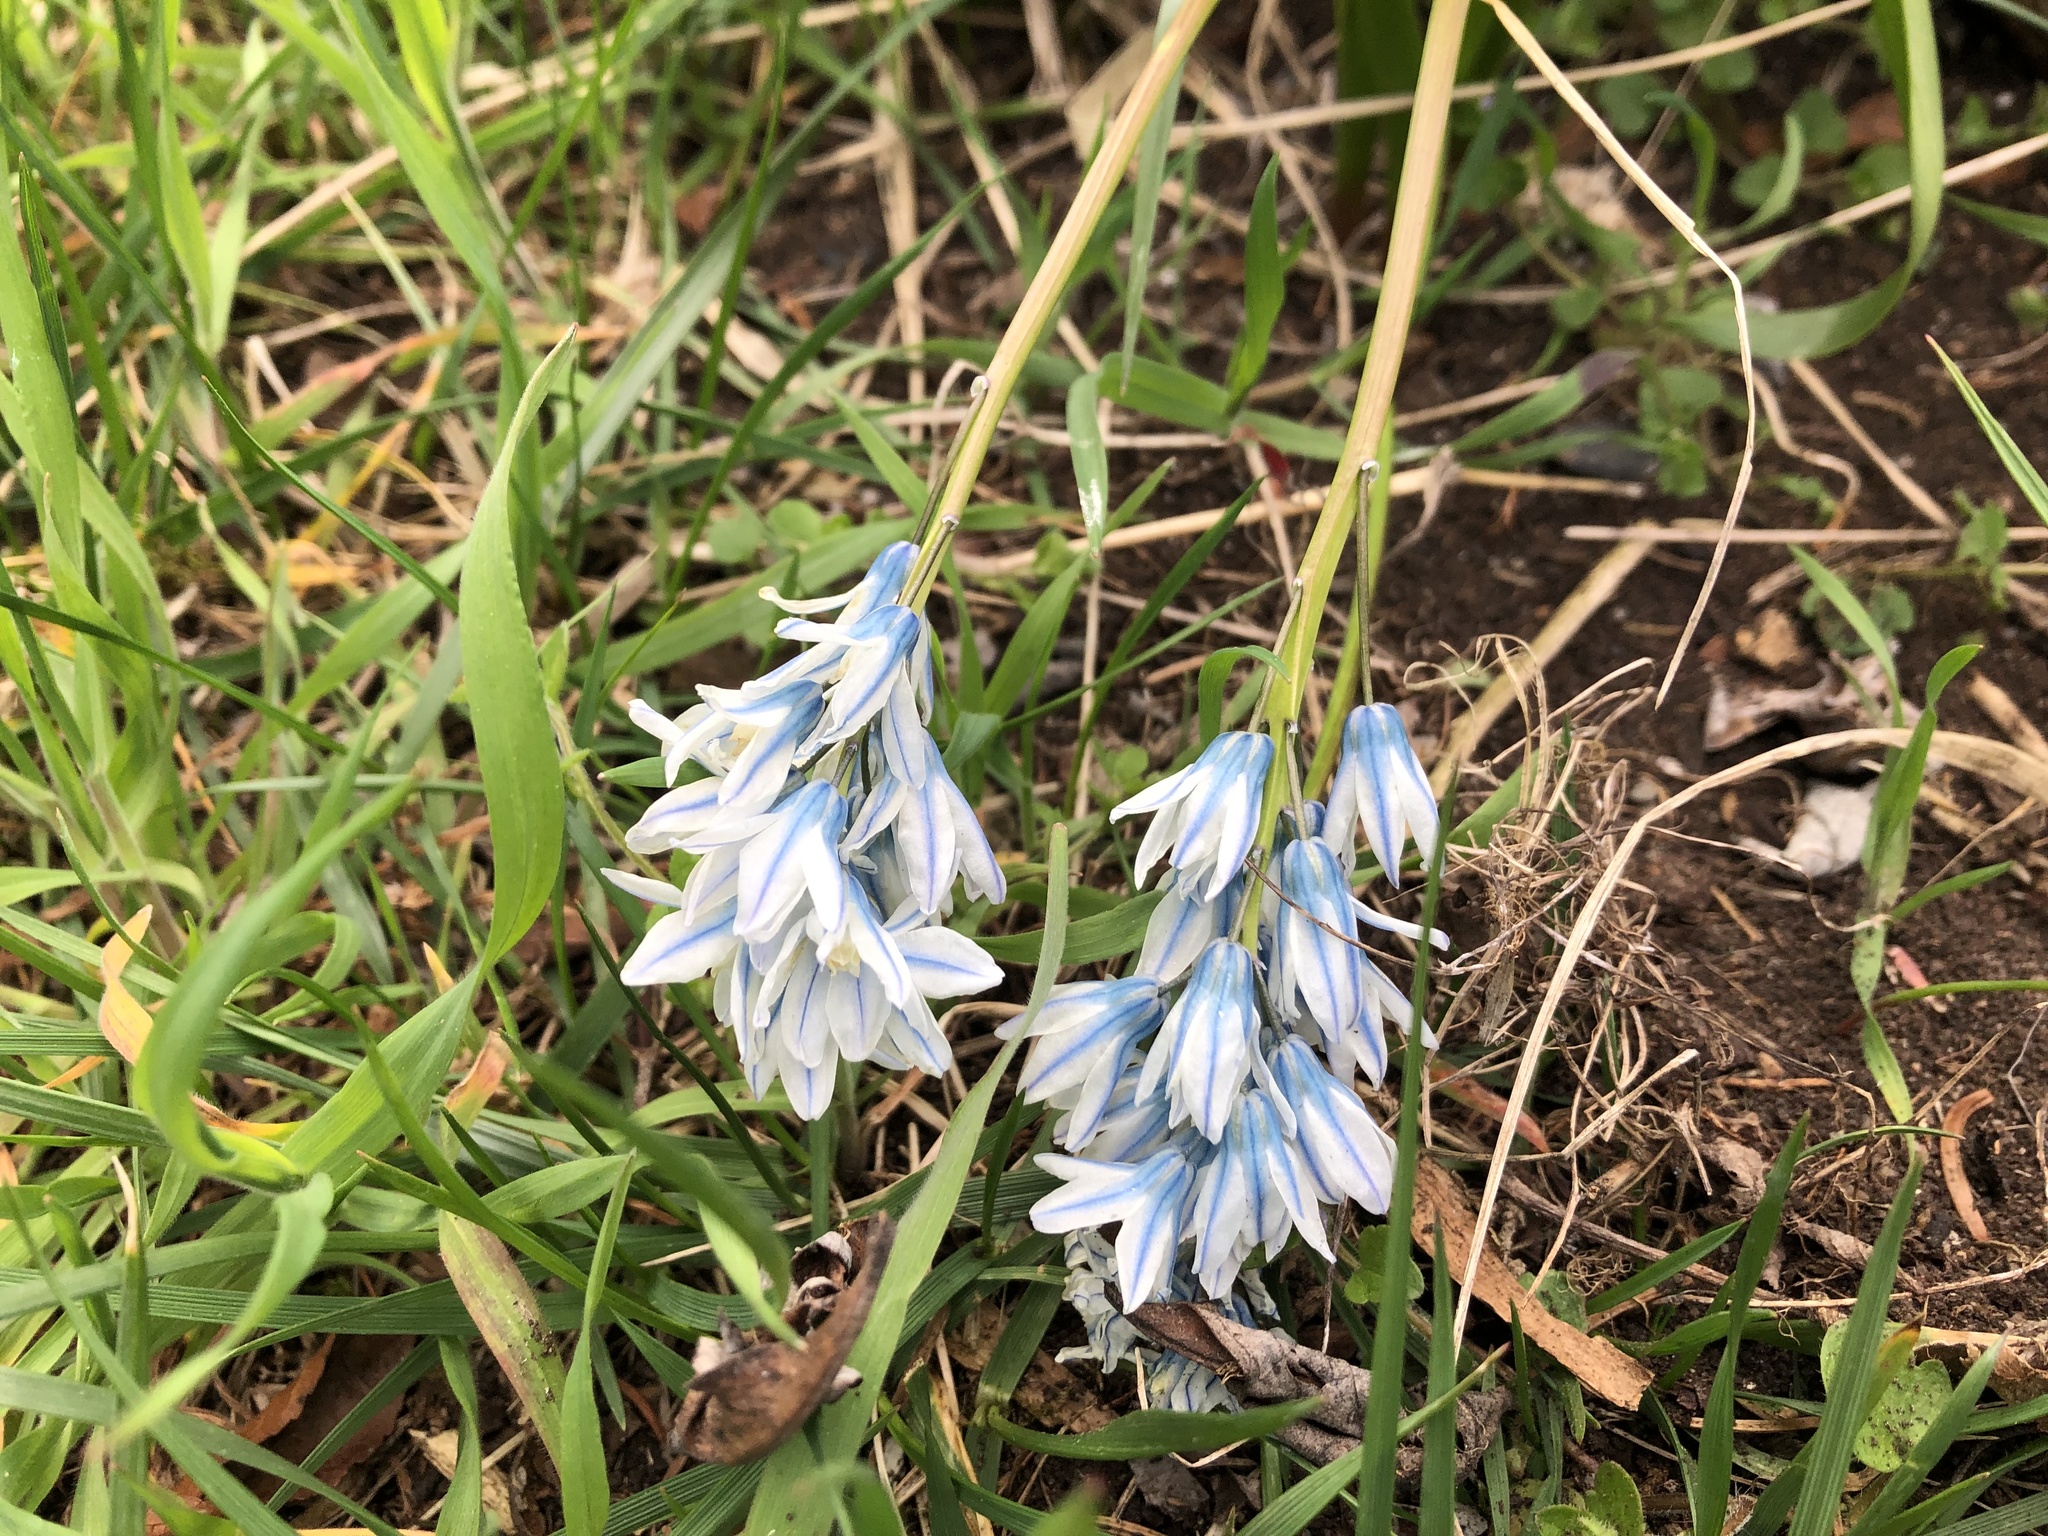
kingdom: Plantae
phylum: Tracheophyta
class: Liliopsida
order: Asparagales
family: Asparagaceae
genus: Puschkinia
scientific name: Puschkinia scilloides
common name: Striped squill
